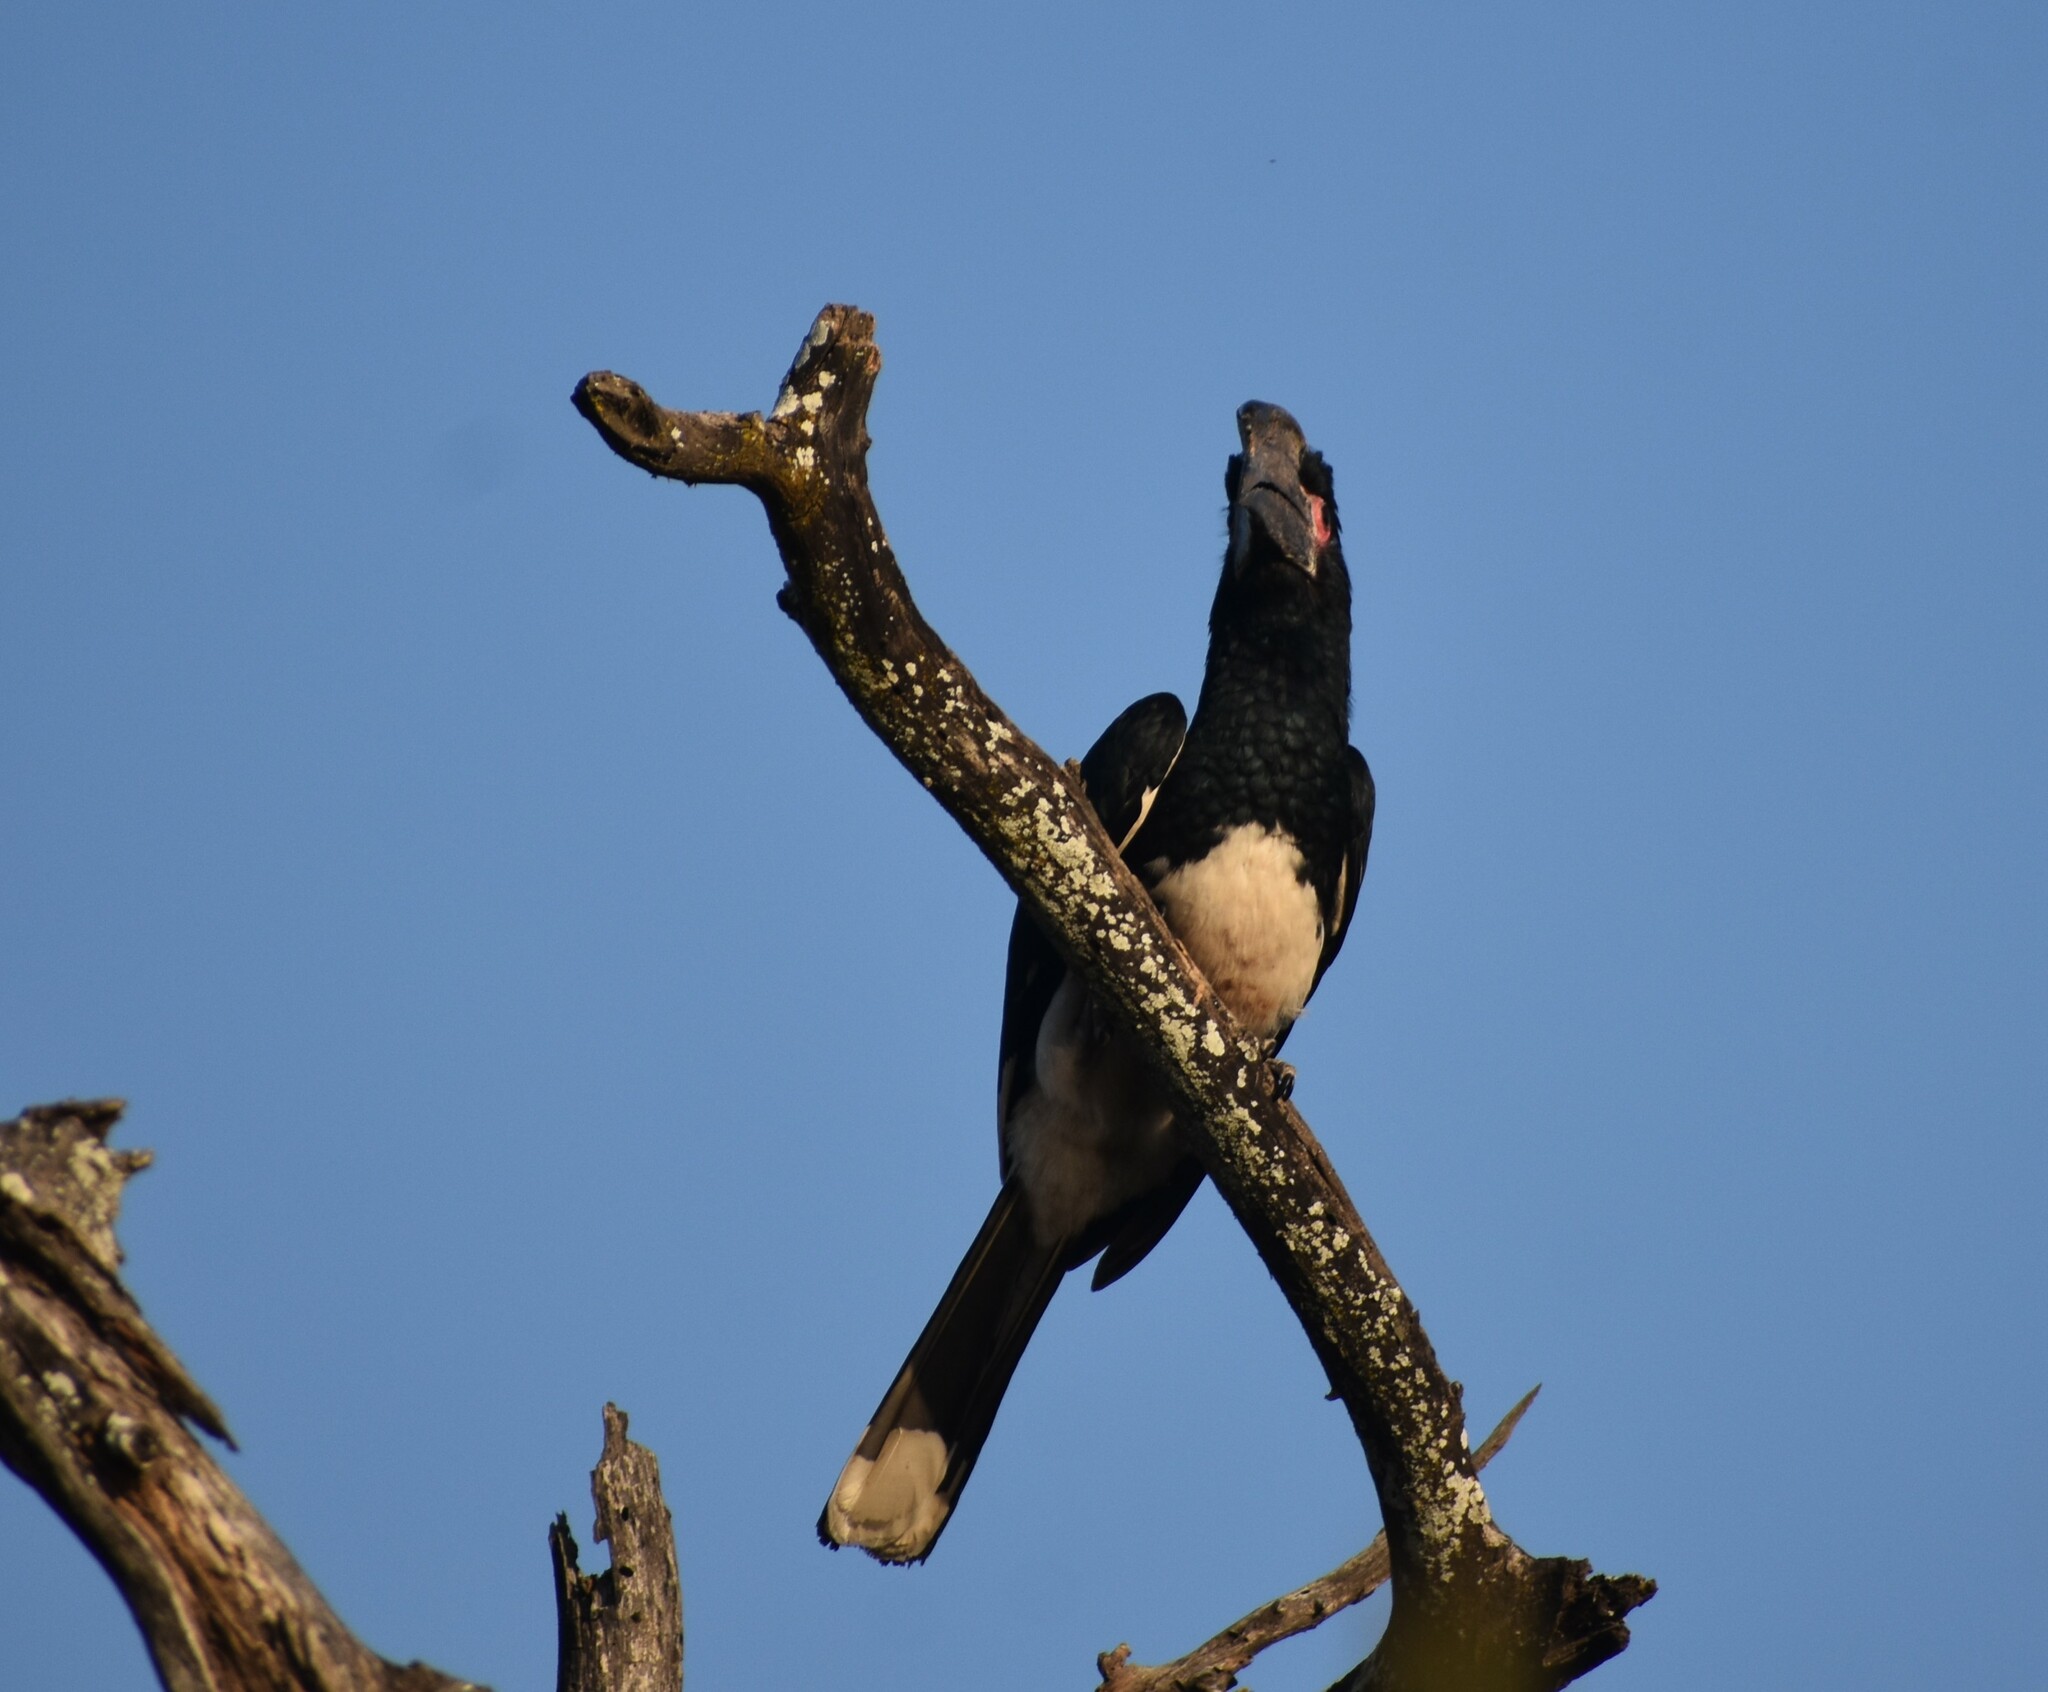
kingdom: Animalia
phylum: Chordata
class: Aves
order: Bucerotiformes
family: Bucerotidae
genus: Bycanistes
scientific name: Bycanistes bucinator
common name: Trumpeter hornbill
